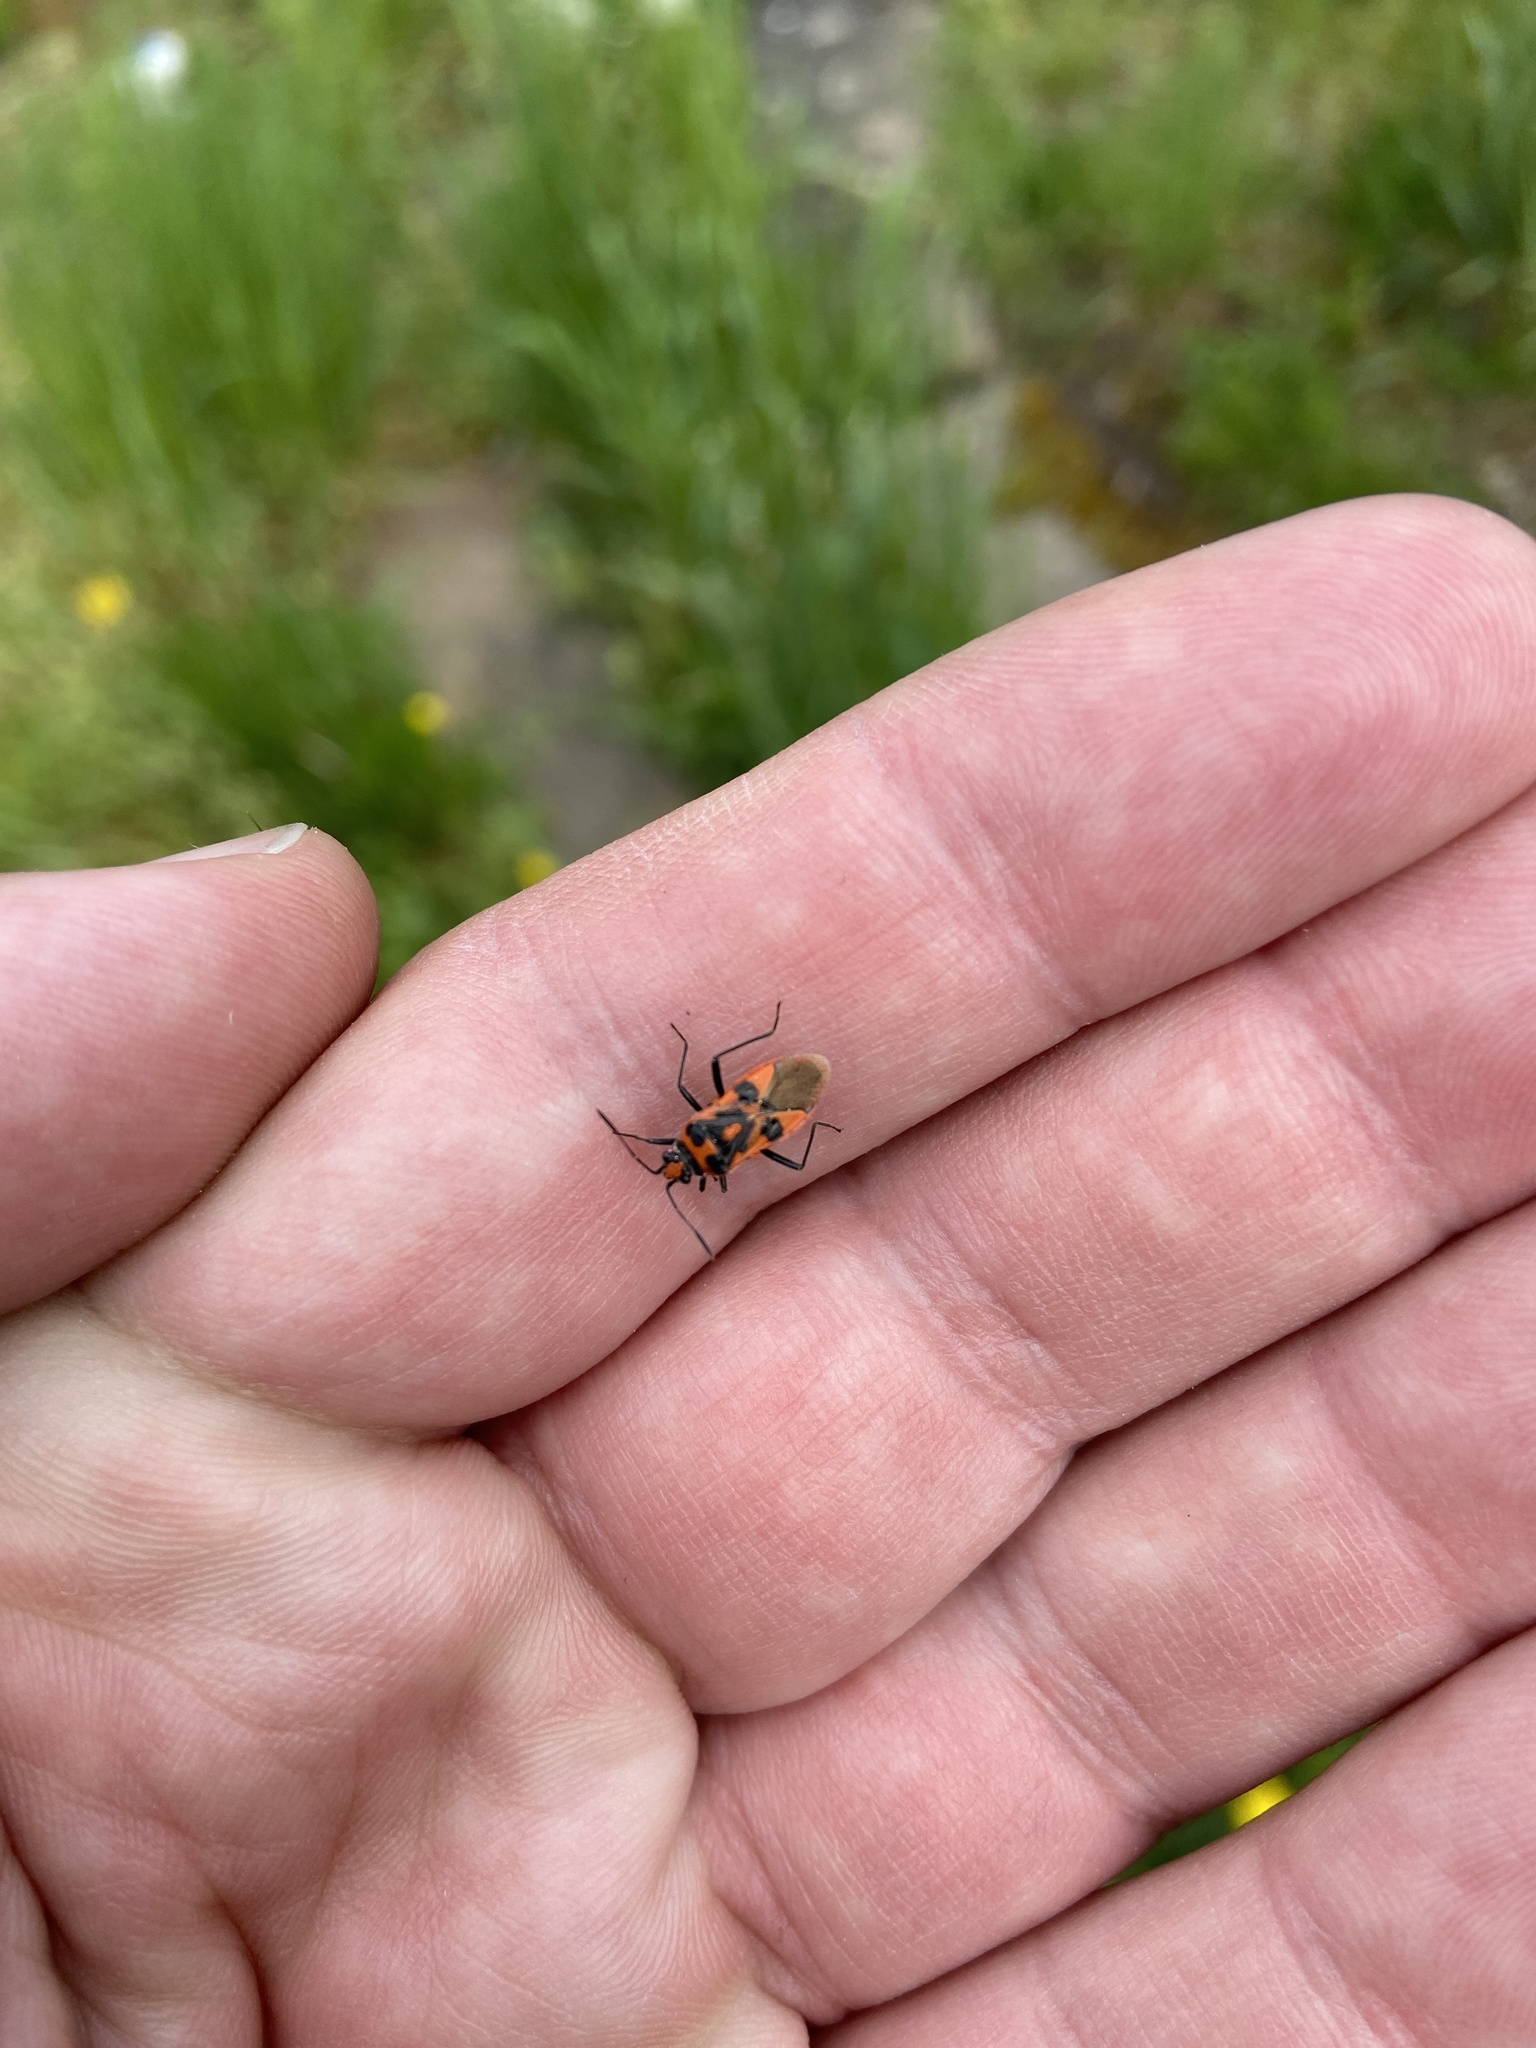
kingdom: Animalia
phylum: Arthropoda
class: Insecta
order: Hemiptera
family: Rhopalidae
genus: Corizus
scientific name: Corizus hyoscyami
